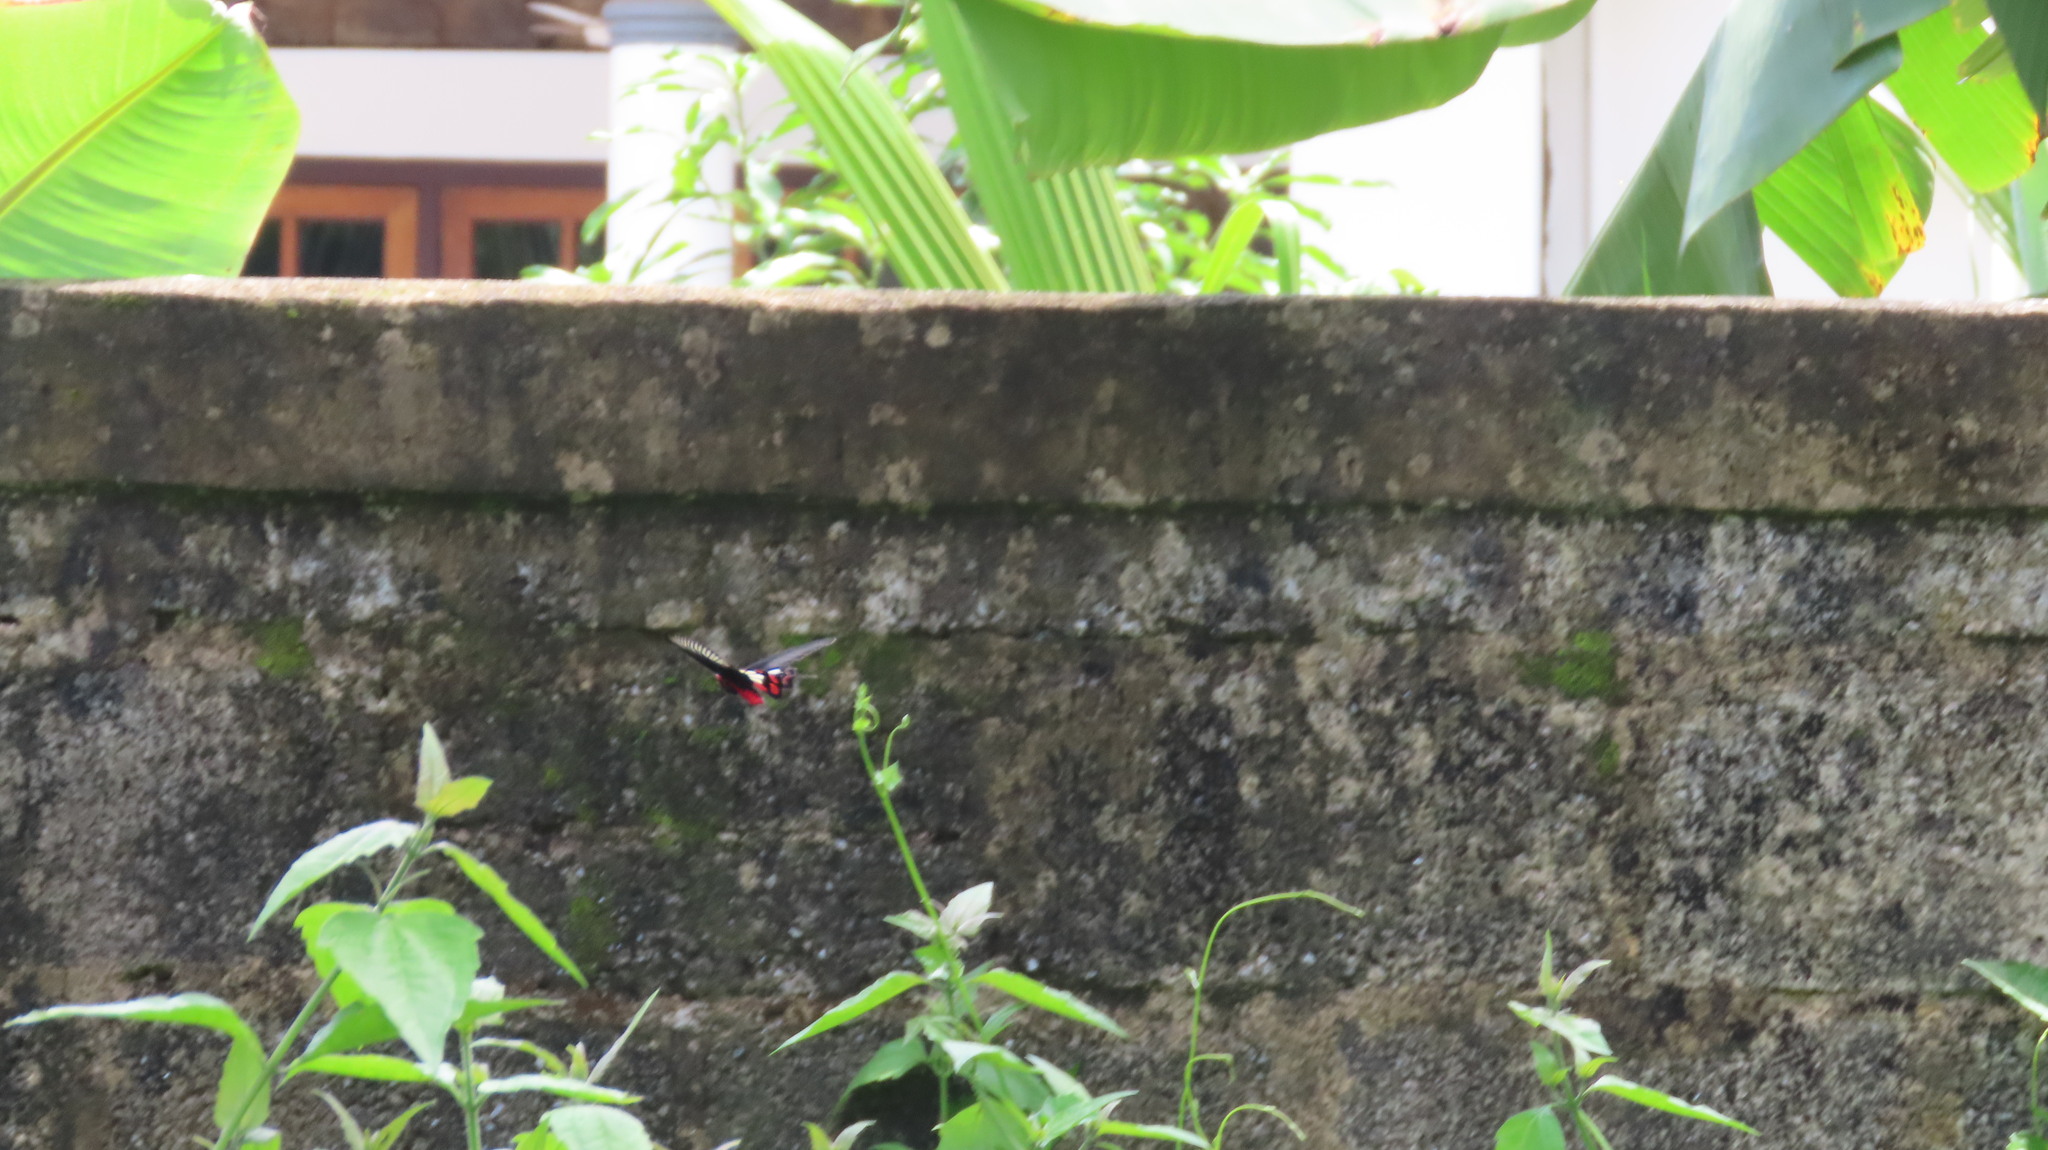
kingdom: Animalia
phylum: Arthropoda
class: Insecta
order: Lepidoptera
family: Papilionidae
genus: Pachliopta
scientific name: Pachliopta aristolochiae
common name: Common rose
